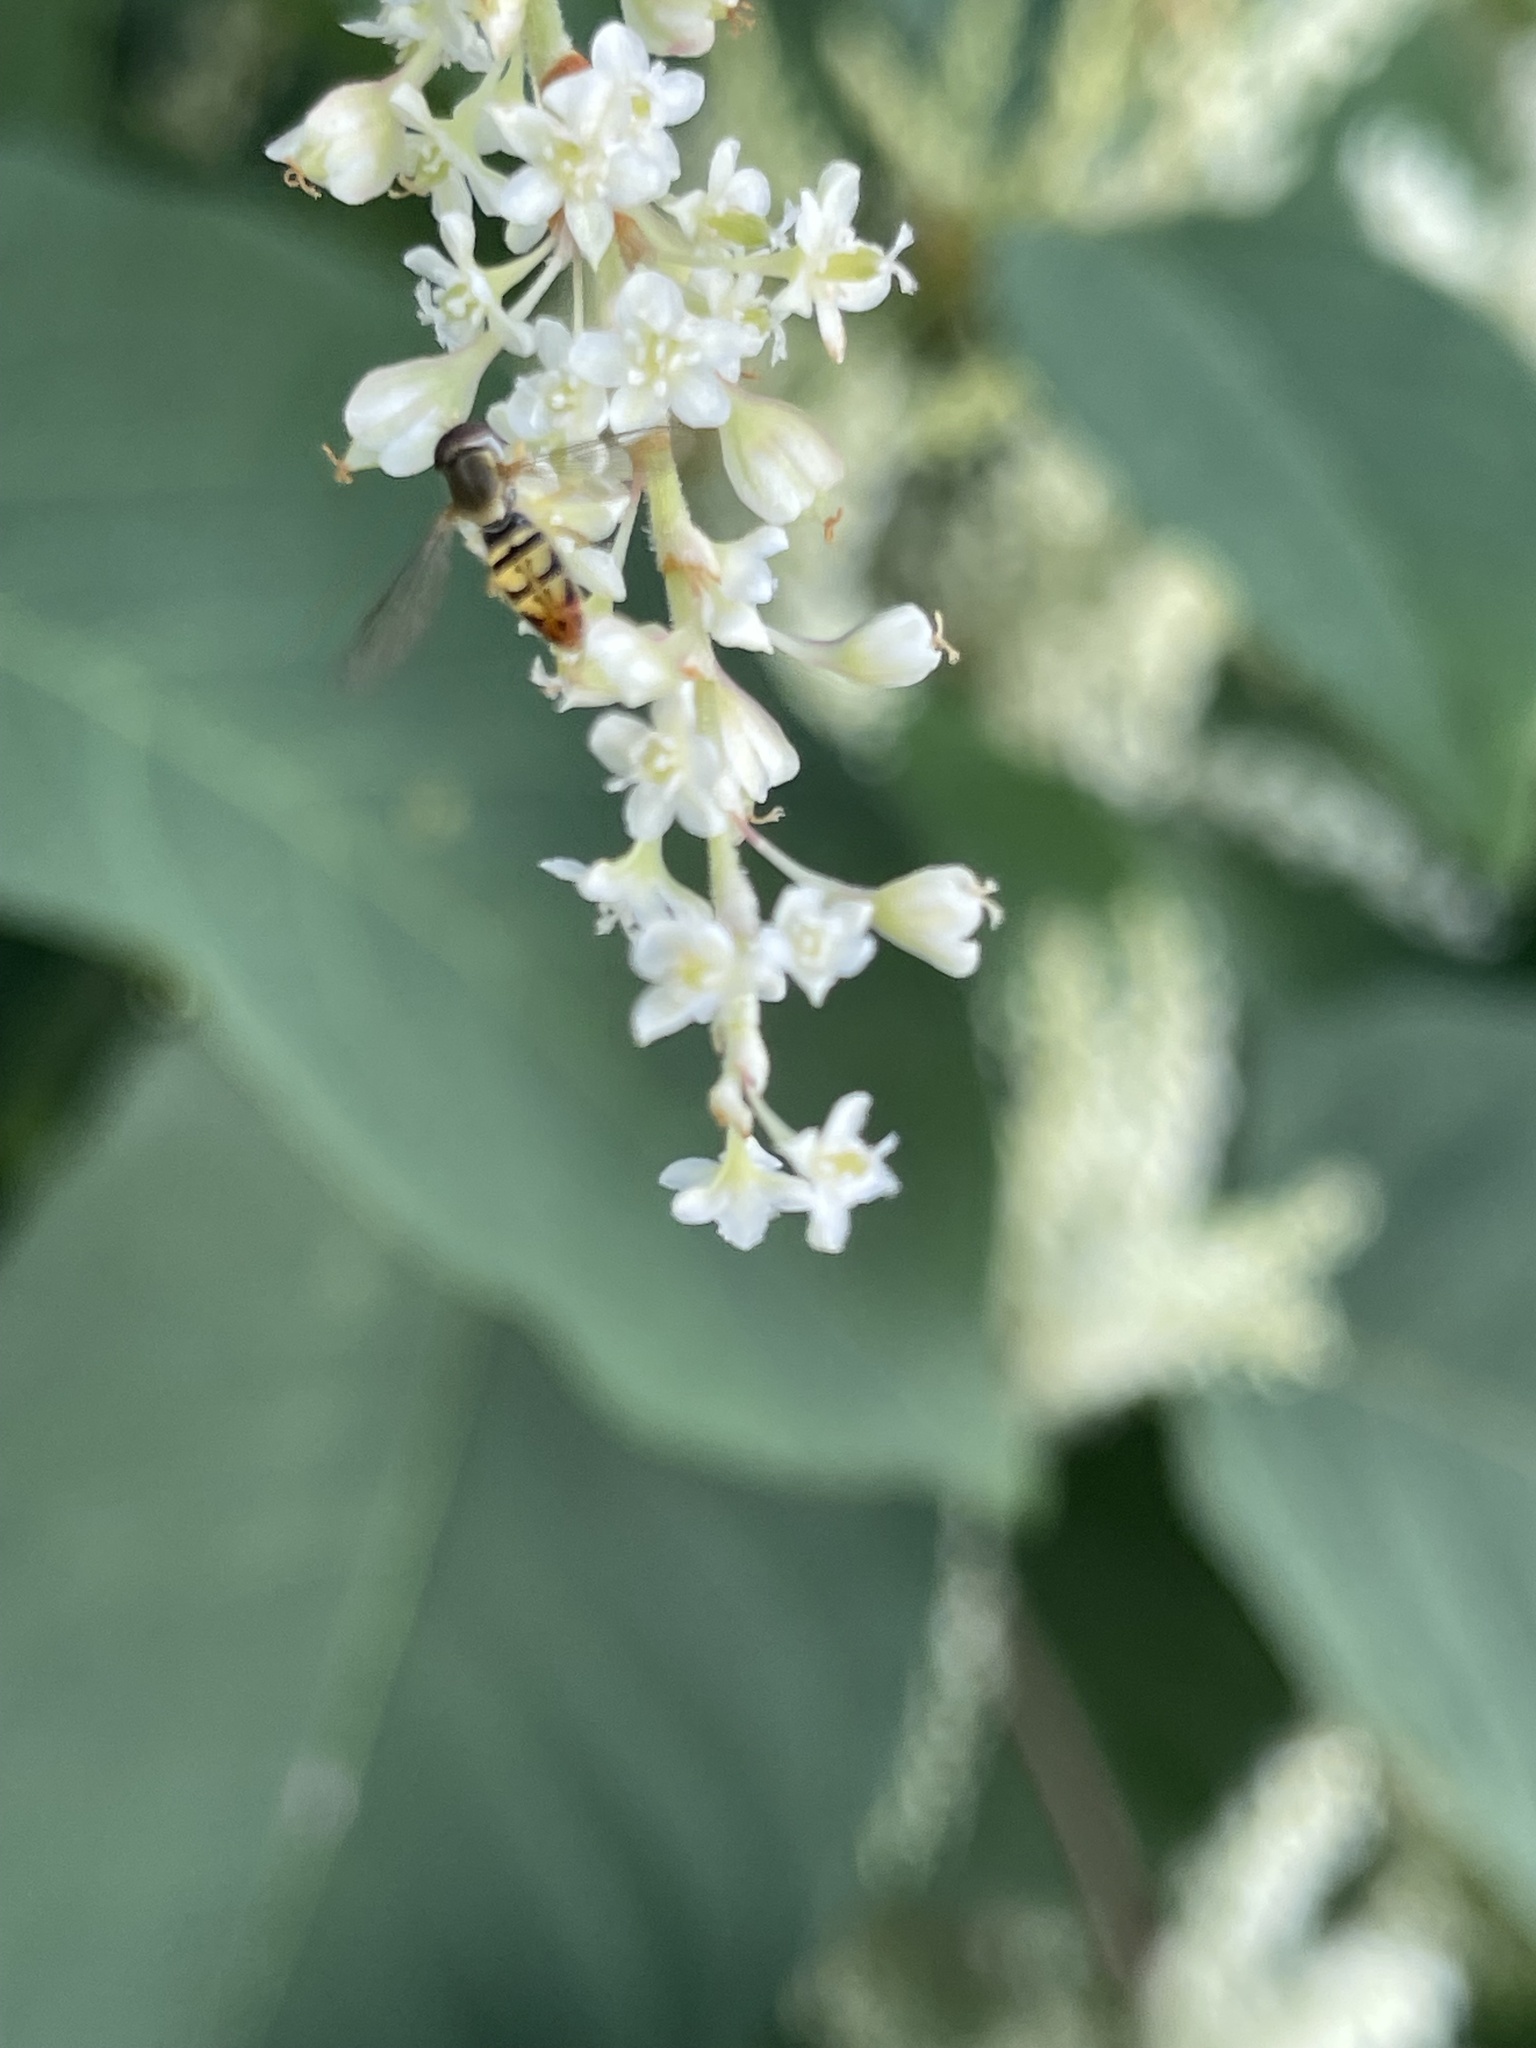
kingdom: Animalia
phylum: Arthropoda
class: Insecta
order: Diptera
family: Syrphidae
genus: Toxomerus
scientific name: Toxomerus marginatus
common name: Syrphid fly
